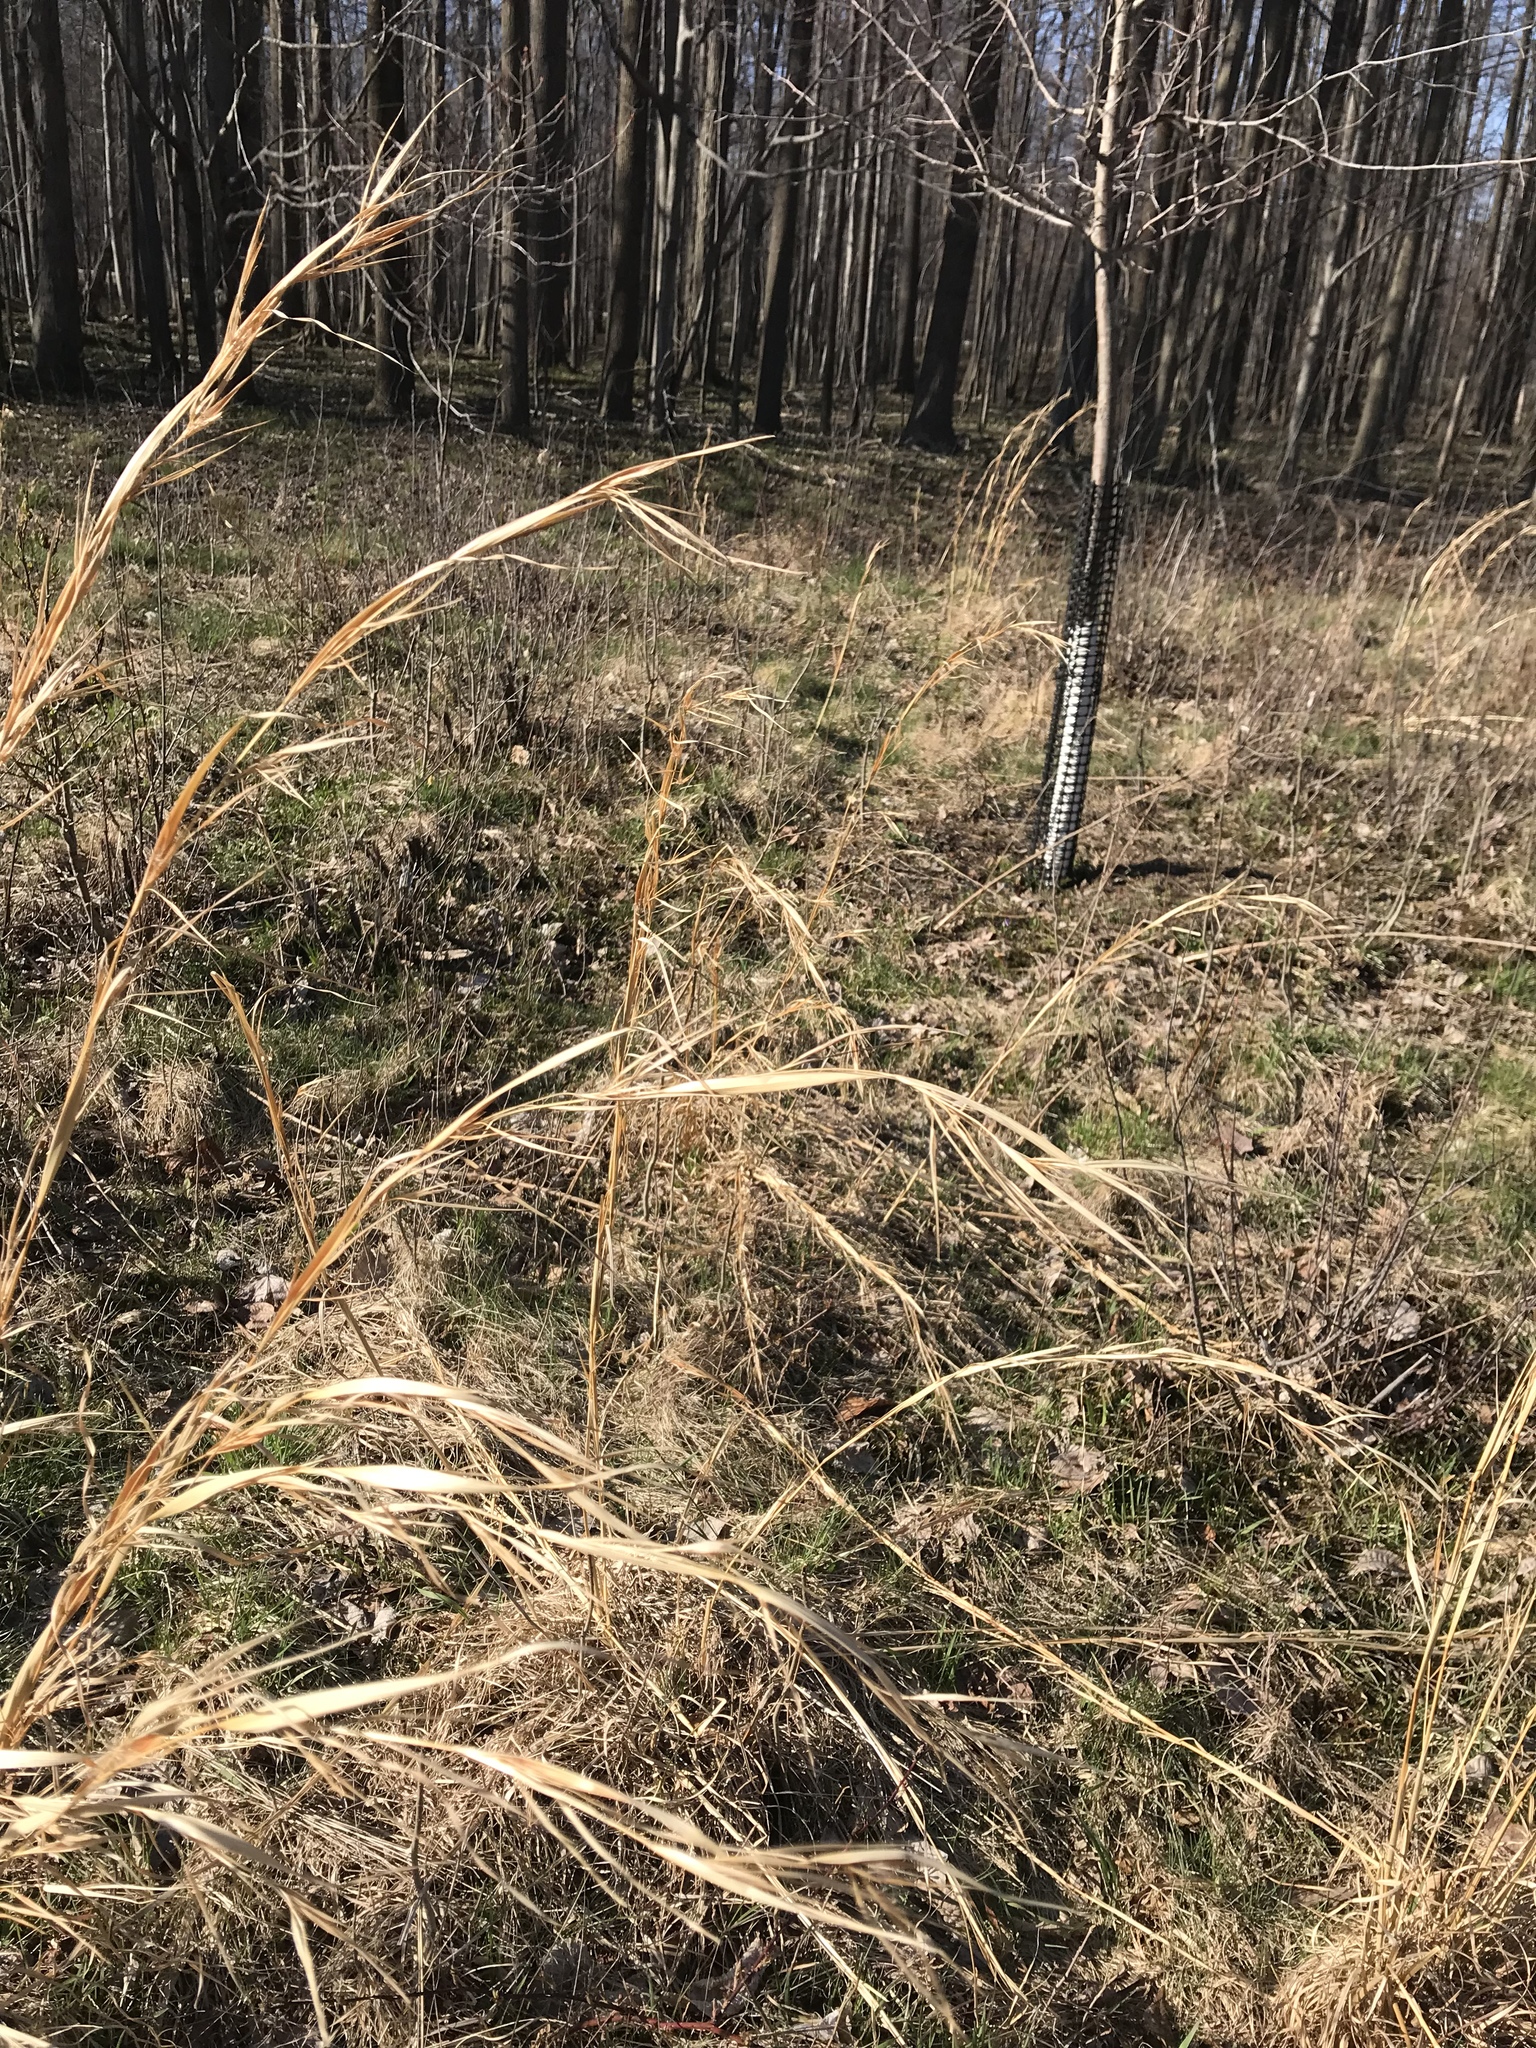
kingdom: Plantae
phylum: Tracheophyta
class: Liliopsida
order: Poales
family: Poaceae
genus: Andropogon
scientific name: Andropogon virginicus
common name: Broomsedge bluestem
